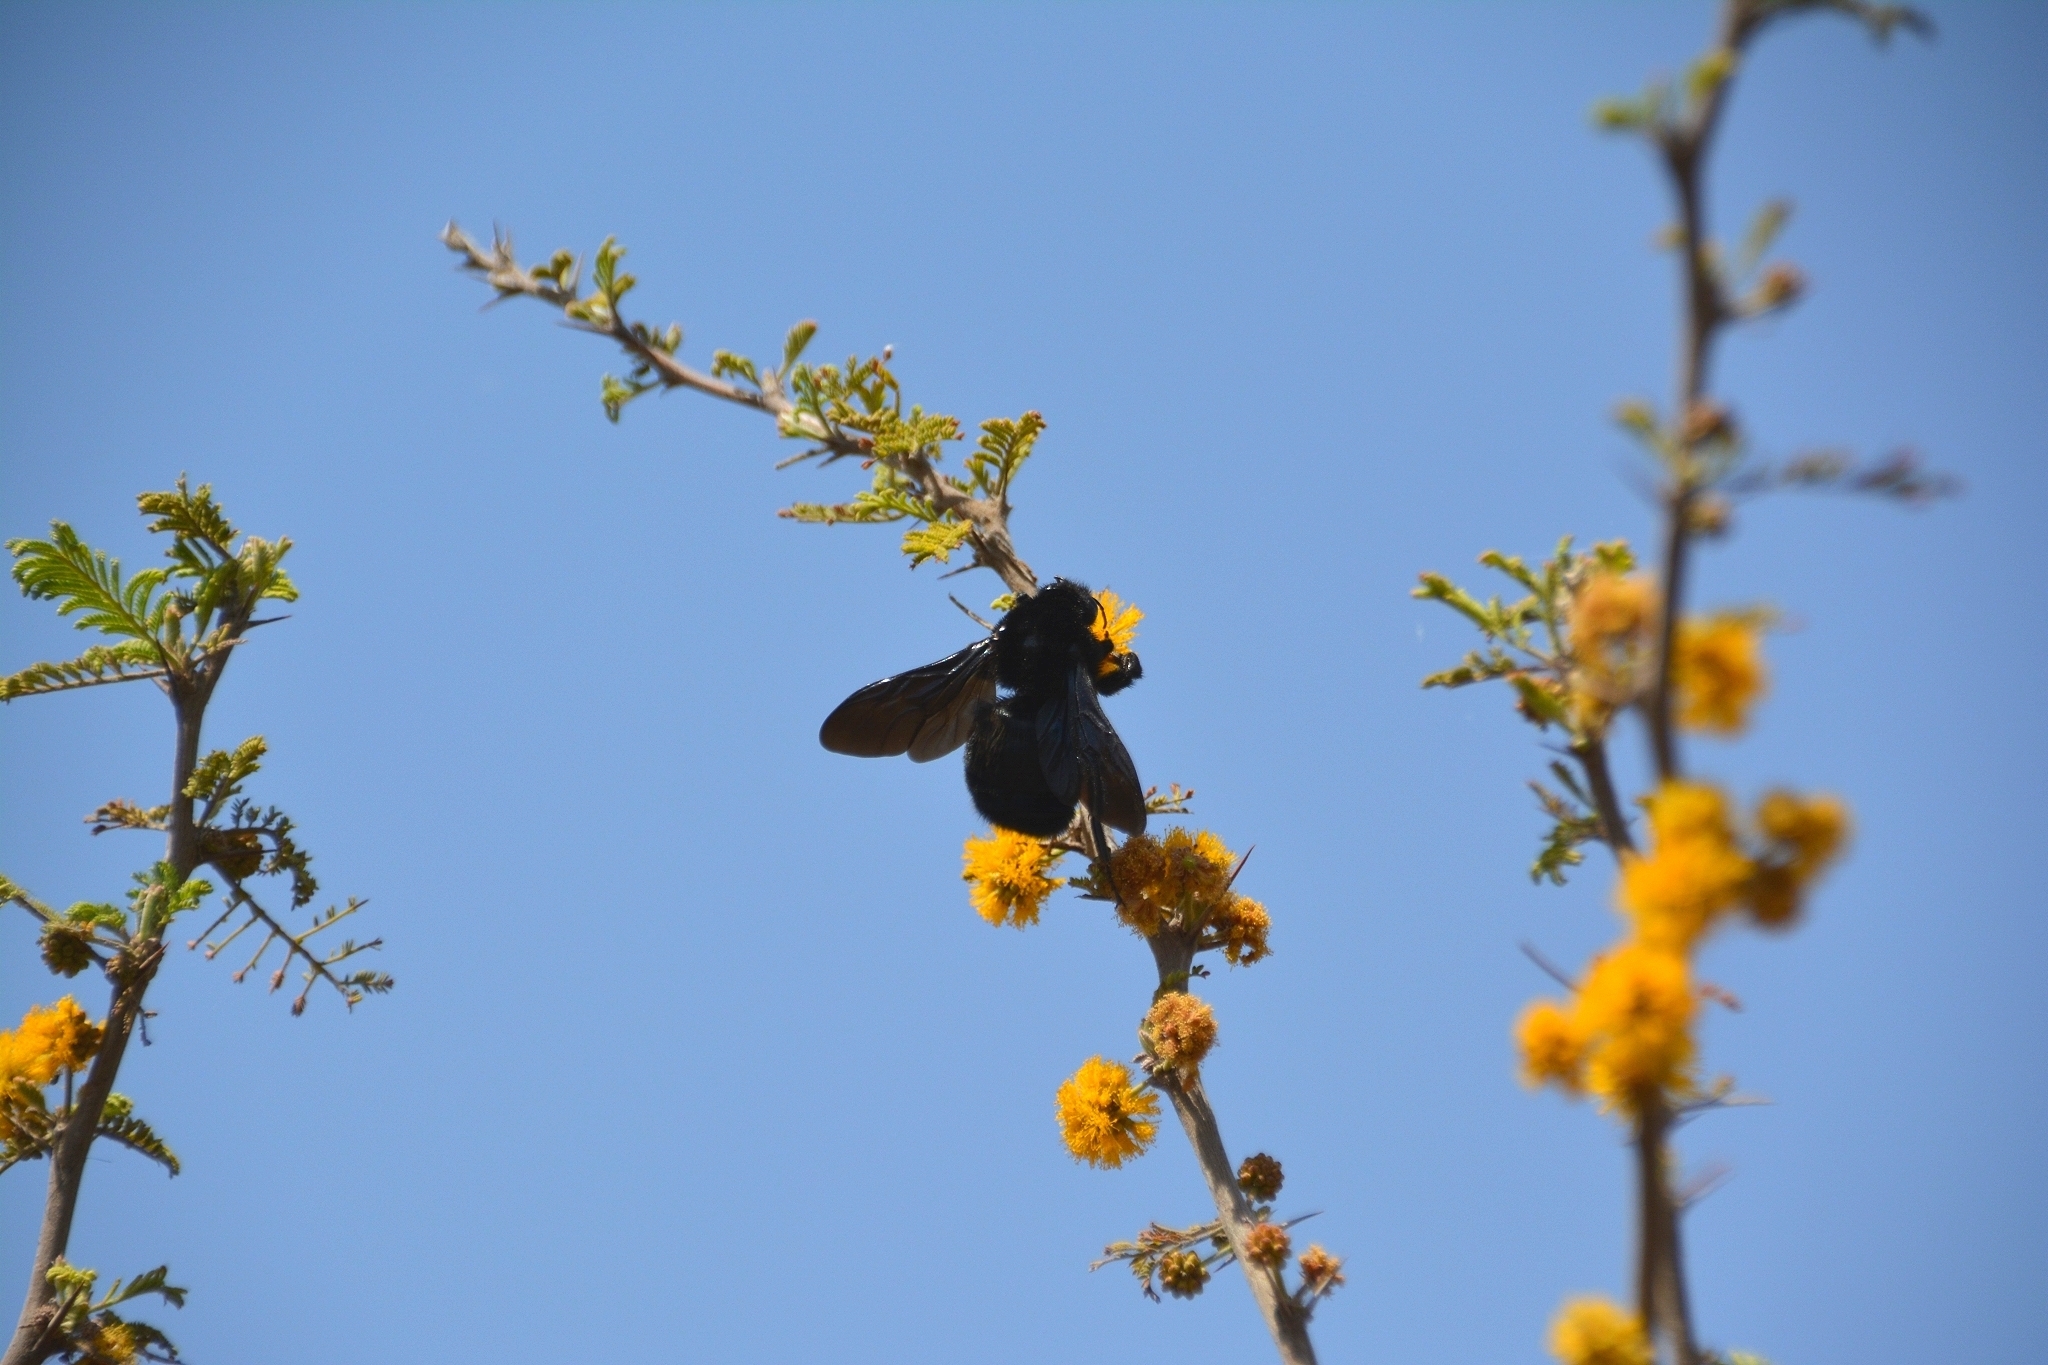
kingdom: Plantae
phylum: Tracheophyta
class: Magnoliopsida
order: Fabales
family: Fabaceae
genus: Vachellia
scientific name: Vachellia caven
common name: Roman cassie
